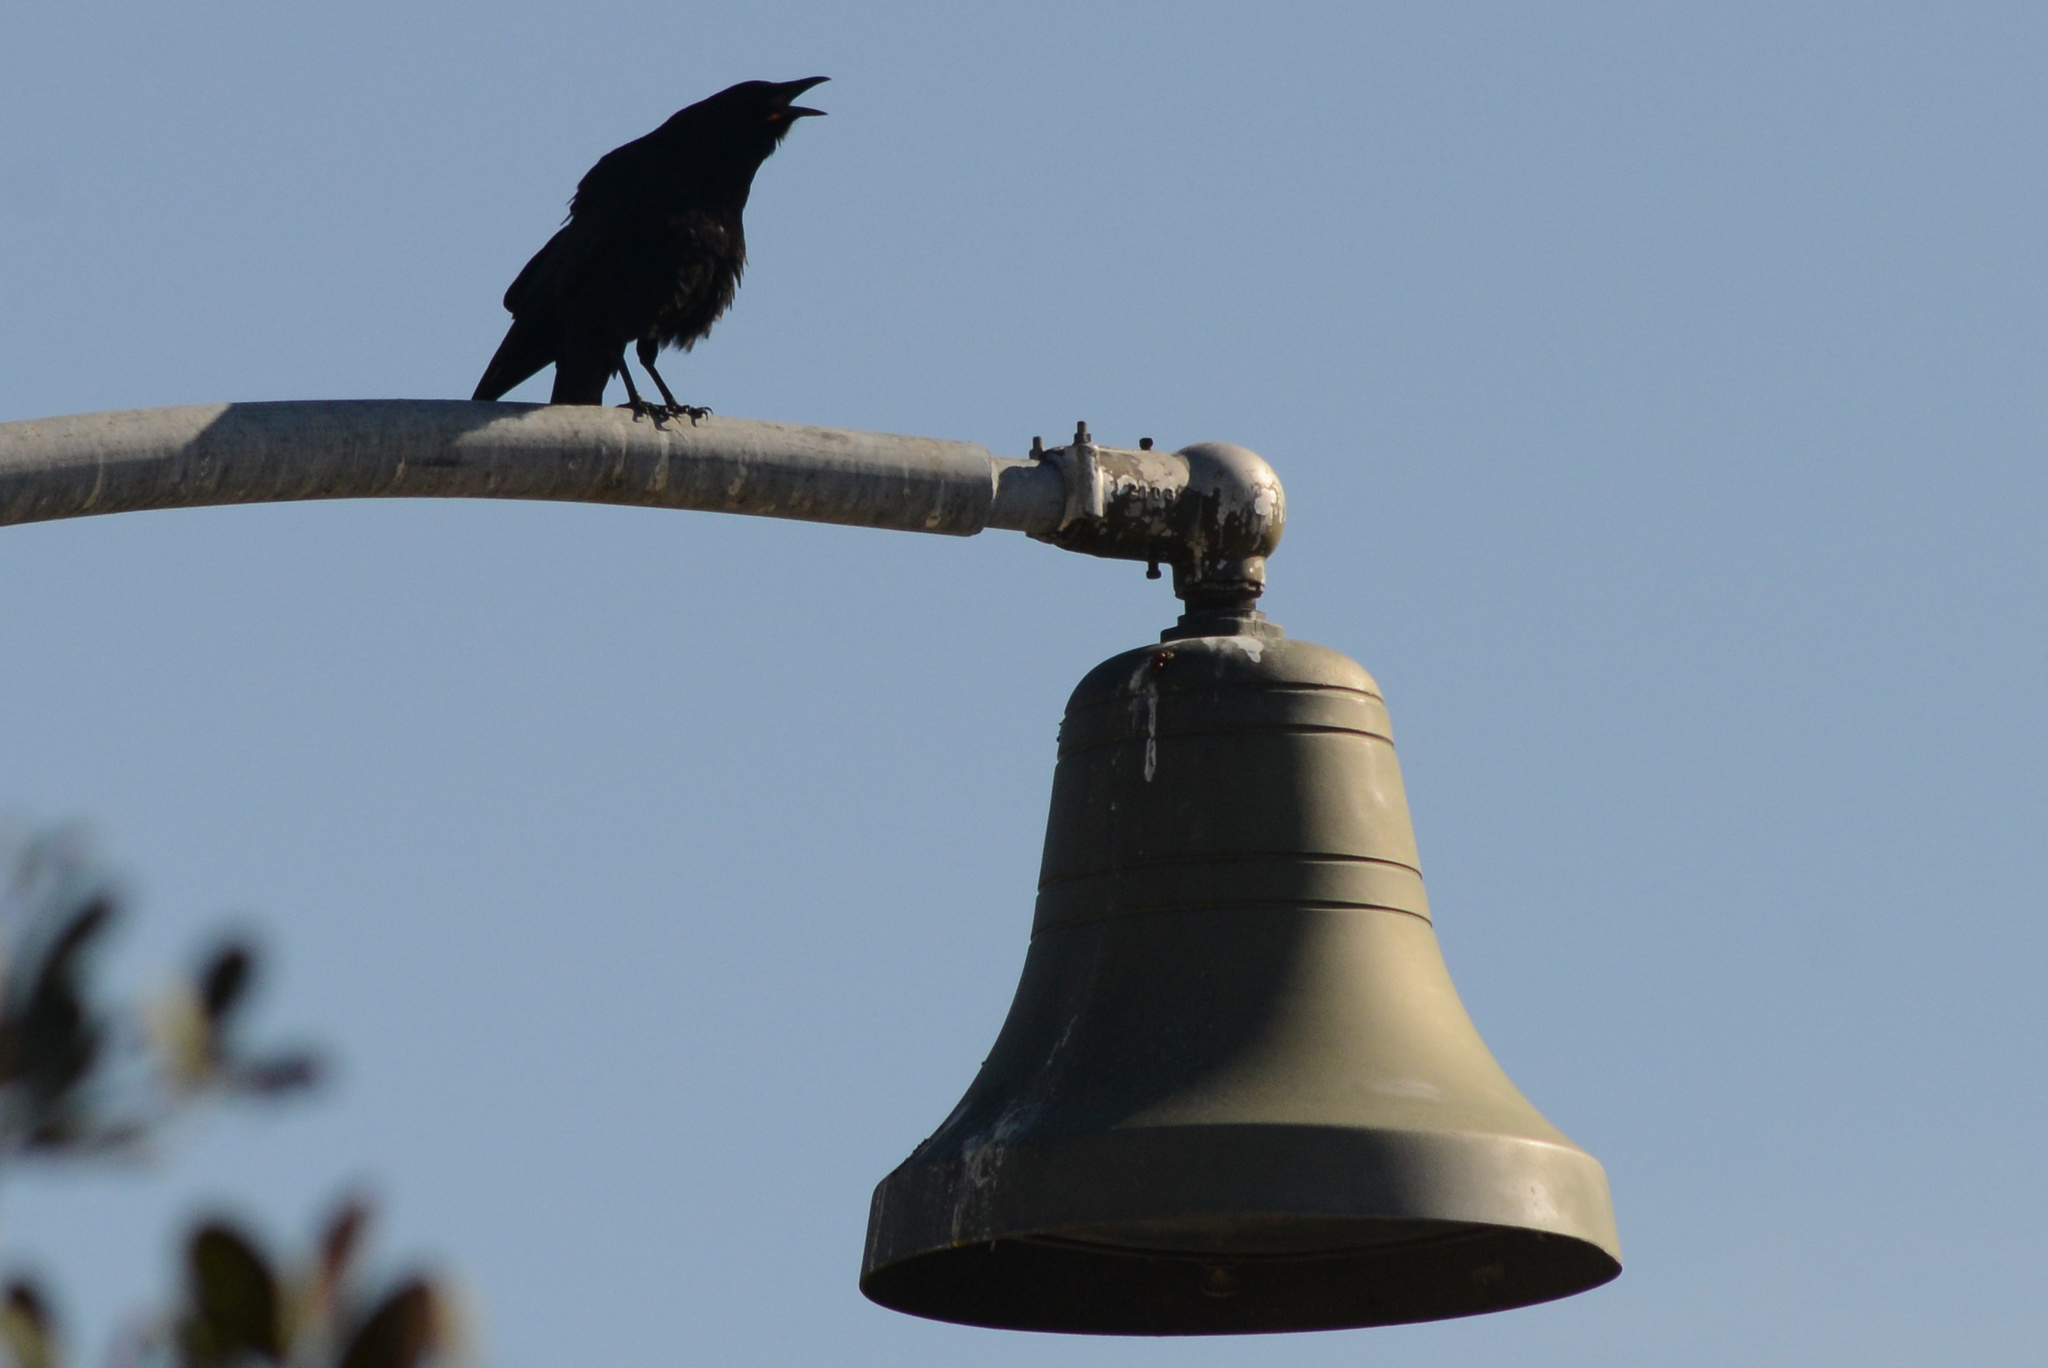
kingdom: Animalia
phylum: Chordata
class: Aves
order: Passeriformes
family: Corvidae
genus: Corvus
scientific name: Corvus brachyrhynchos
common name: American crow
